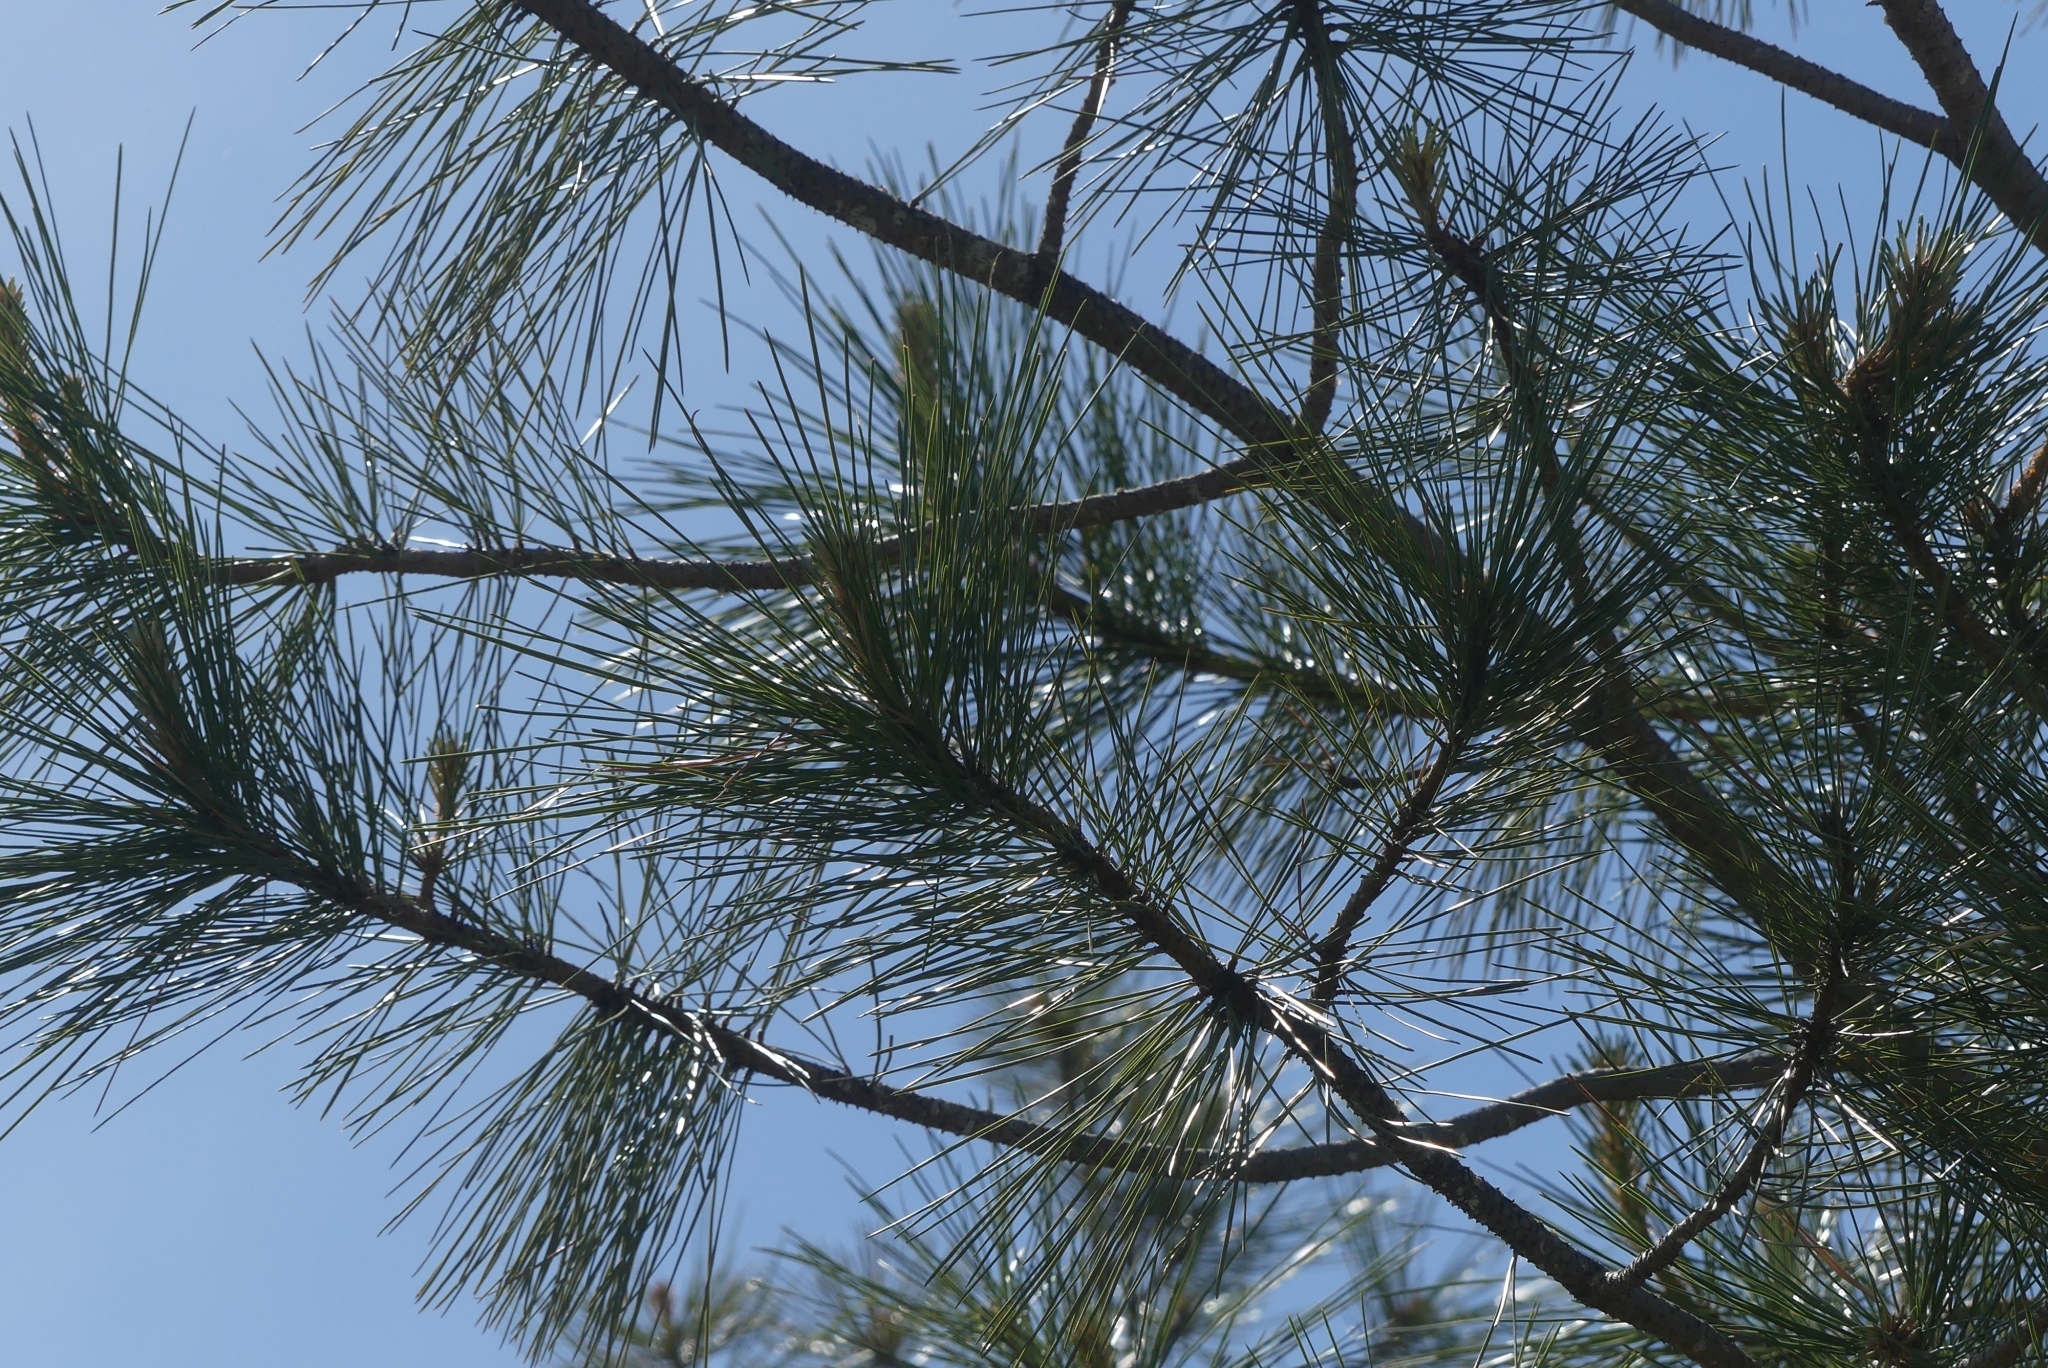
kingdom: Plantae
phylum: Tracheophyta
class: Pinopsida
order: Pinales
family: Pinaceae
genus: Pinus
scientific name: Pinus ponderosa
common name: Western yellow-pine
